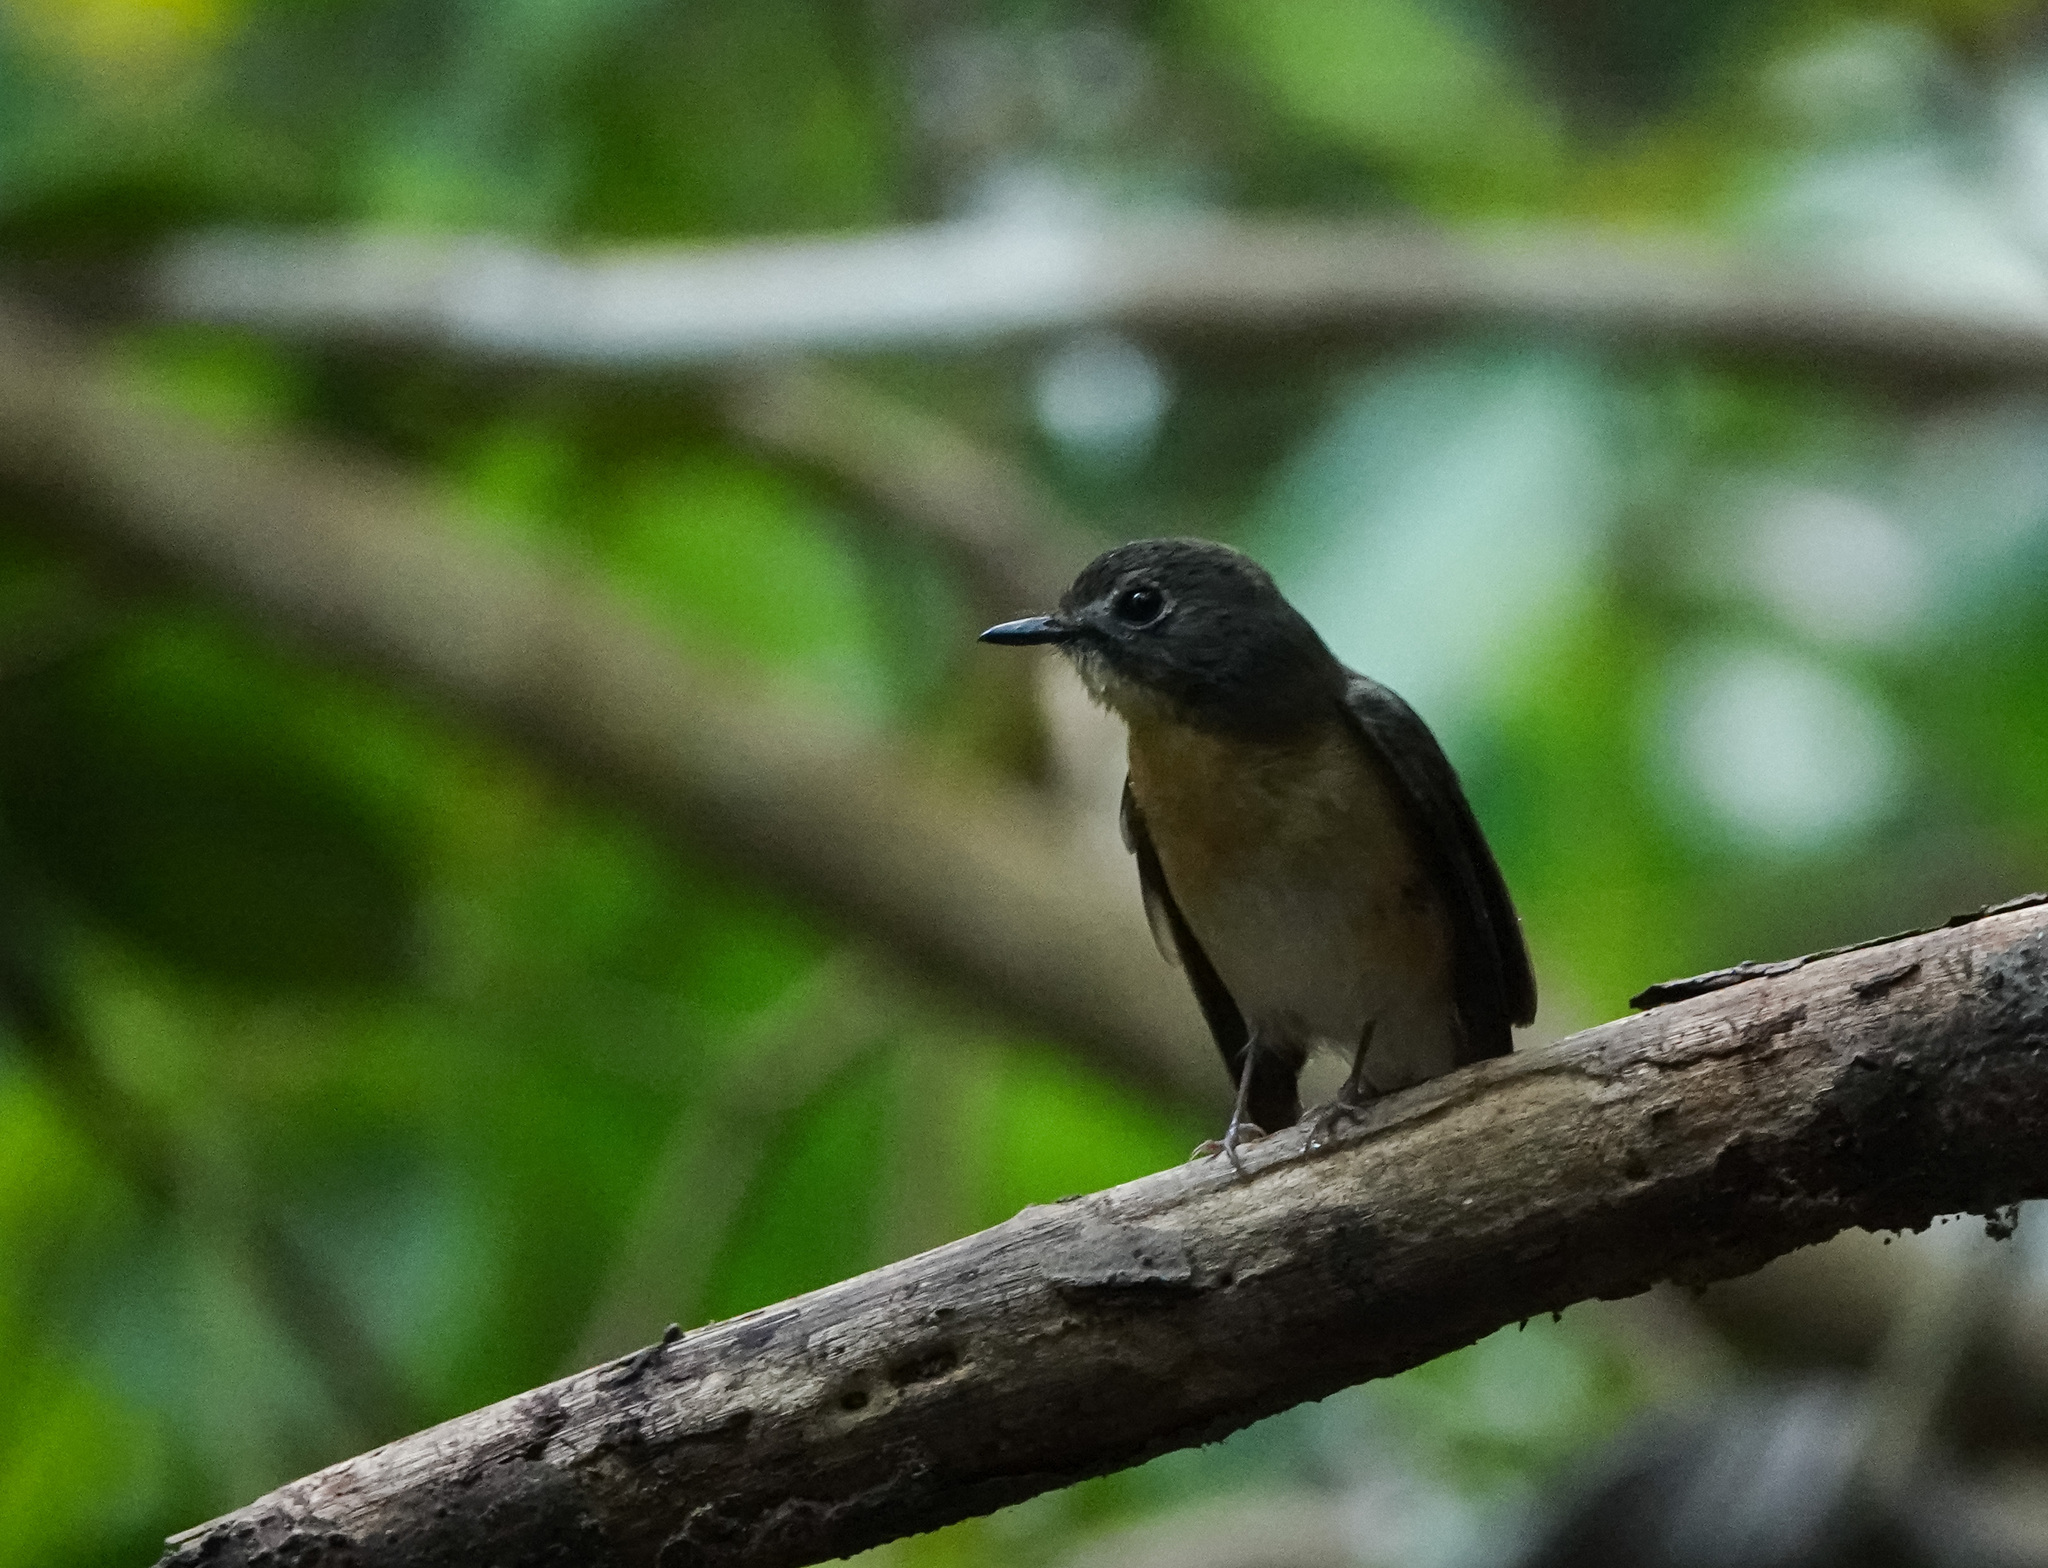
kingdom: Animalia
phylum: Chordata
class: Aves
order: Passeriformes
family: Muscicapidae
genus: Cyornis
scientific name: Cyornis poliogenys
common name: Pale-chinned blue flycatcher
